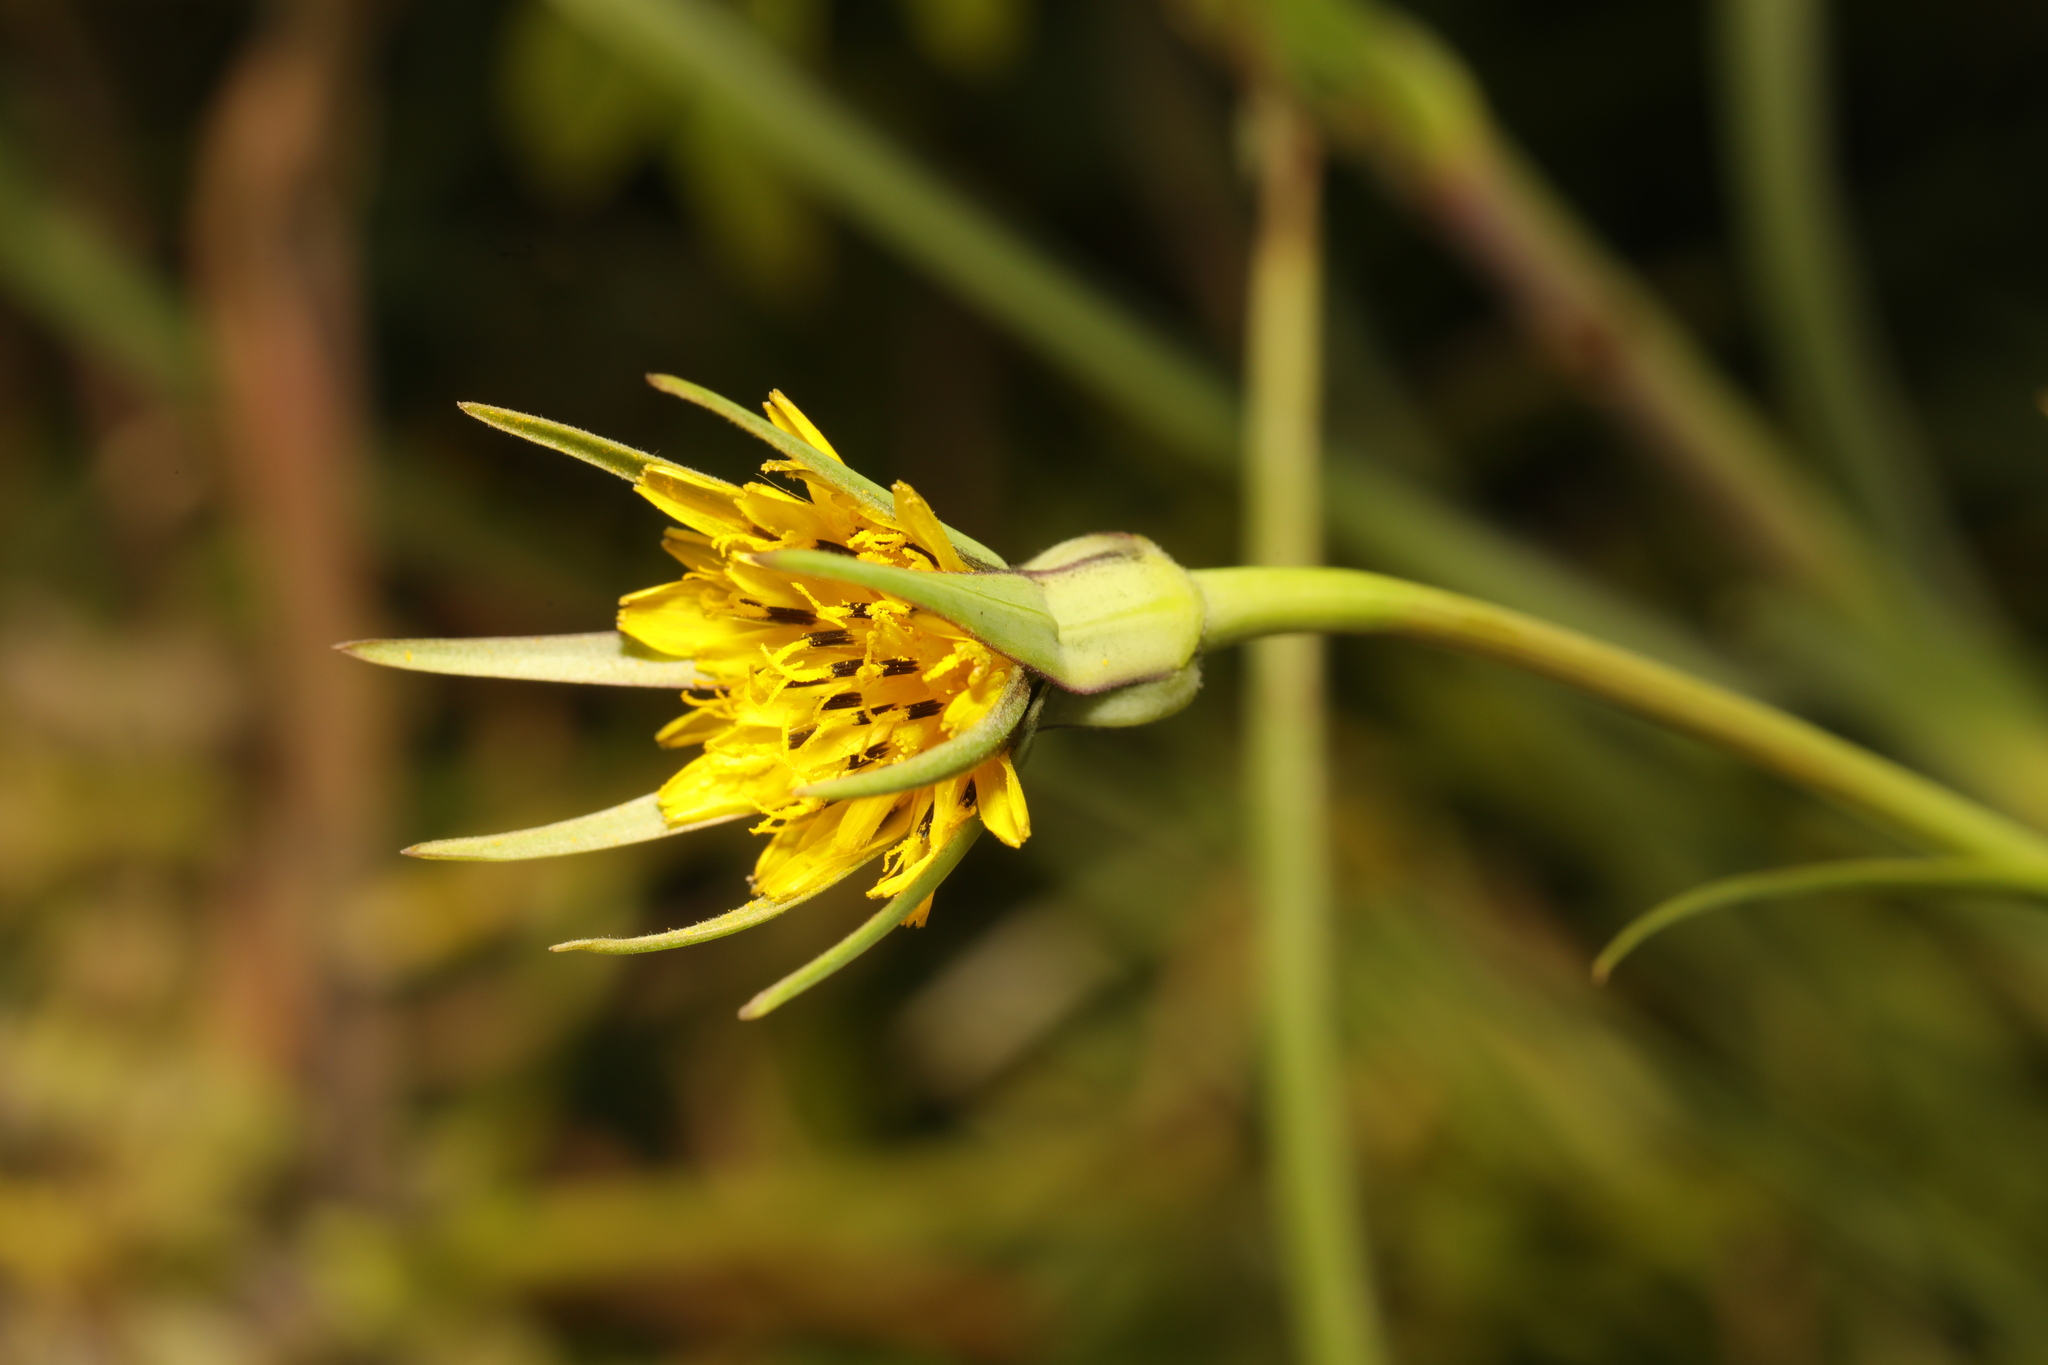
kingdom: Plantae
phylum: Tracheophyta
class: Magnoliopsida
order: Asterales
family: Asteraceae
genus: Tragopogon
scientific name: Tragopogon minor
